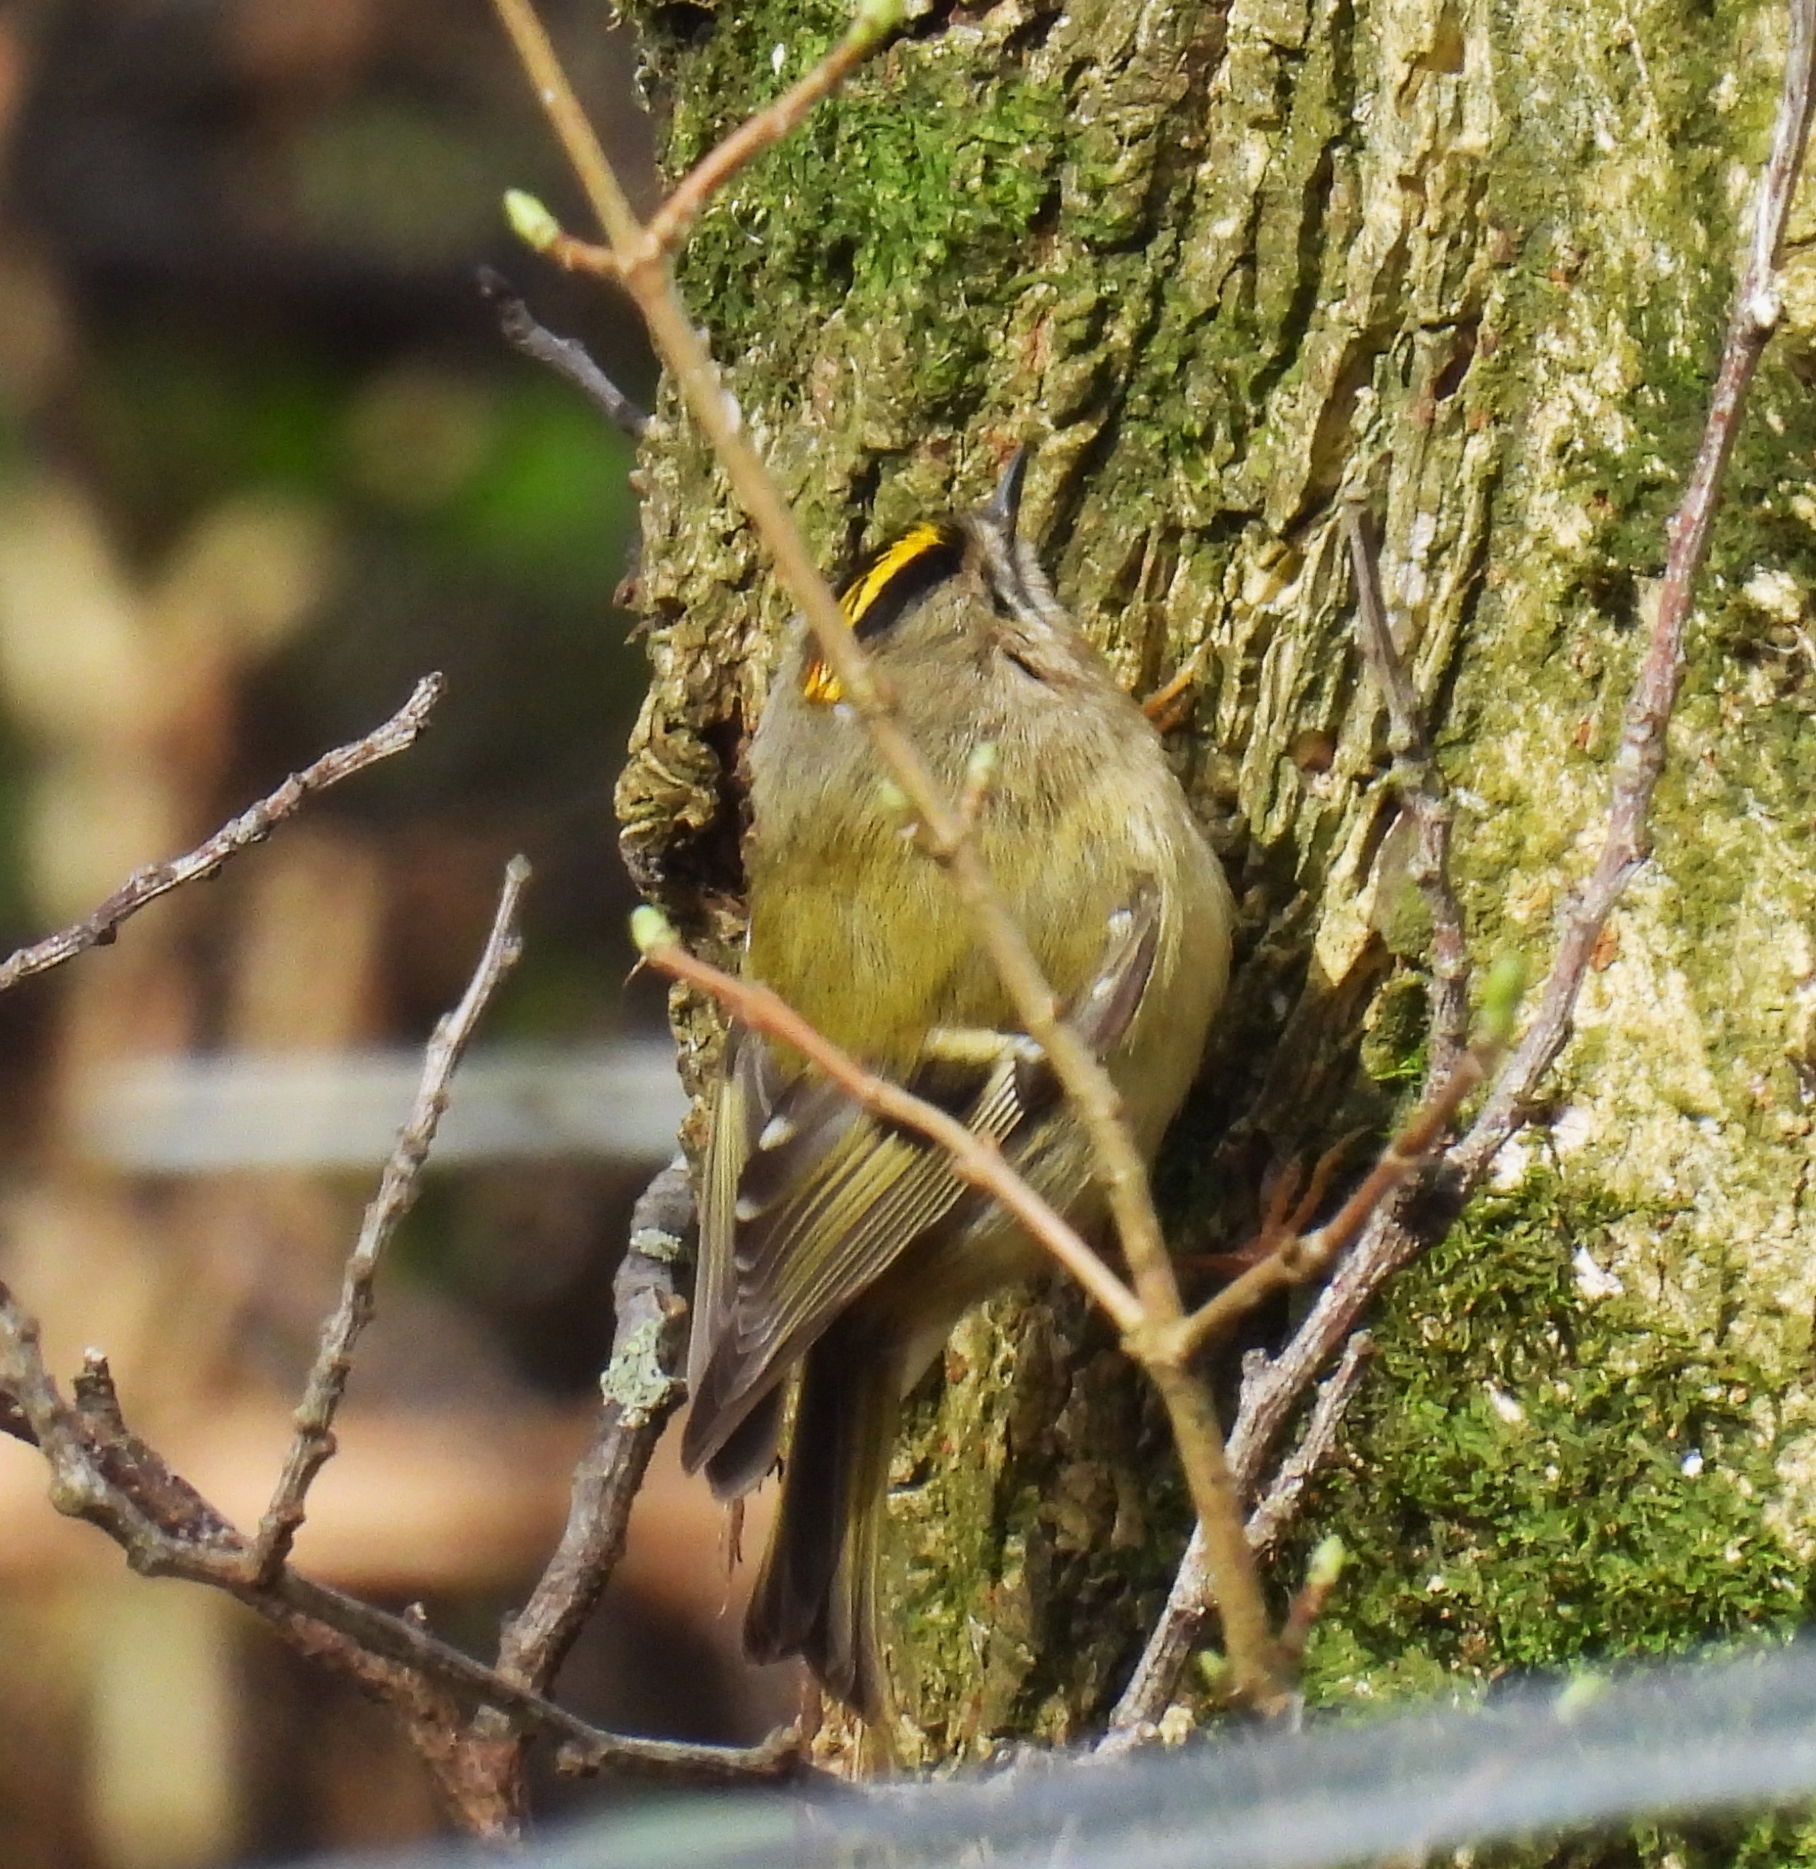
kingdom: Animalia
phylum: Chordata
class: Aves
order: Passeriformes
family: Regulidae
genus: Regulus
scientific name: Regulus regulus
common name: Goldcrest
